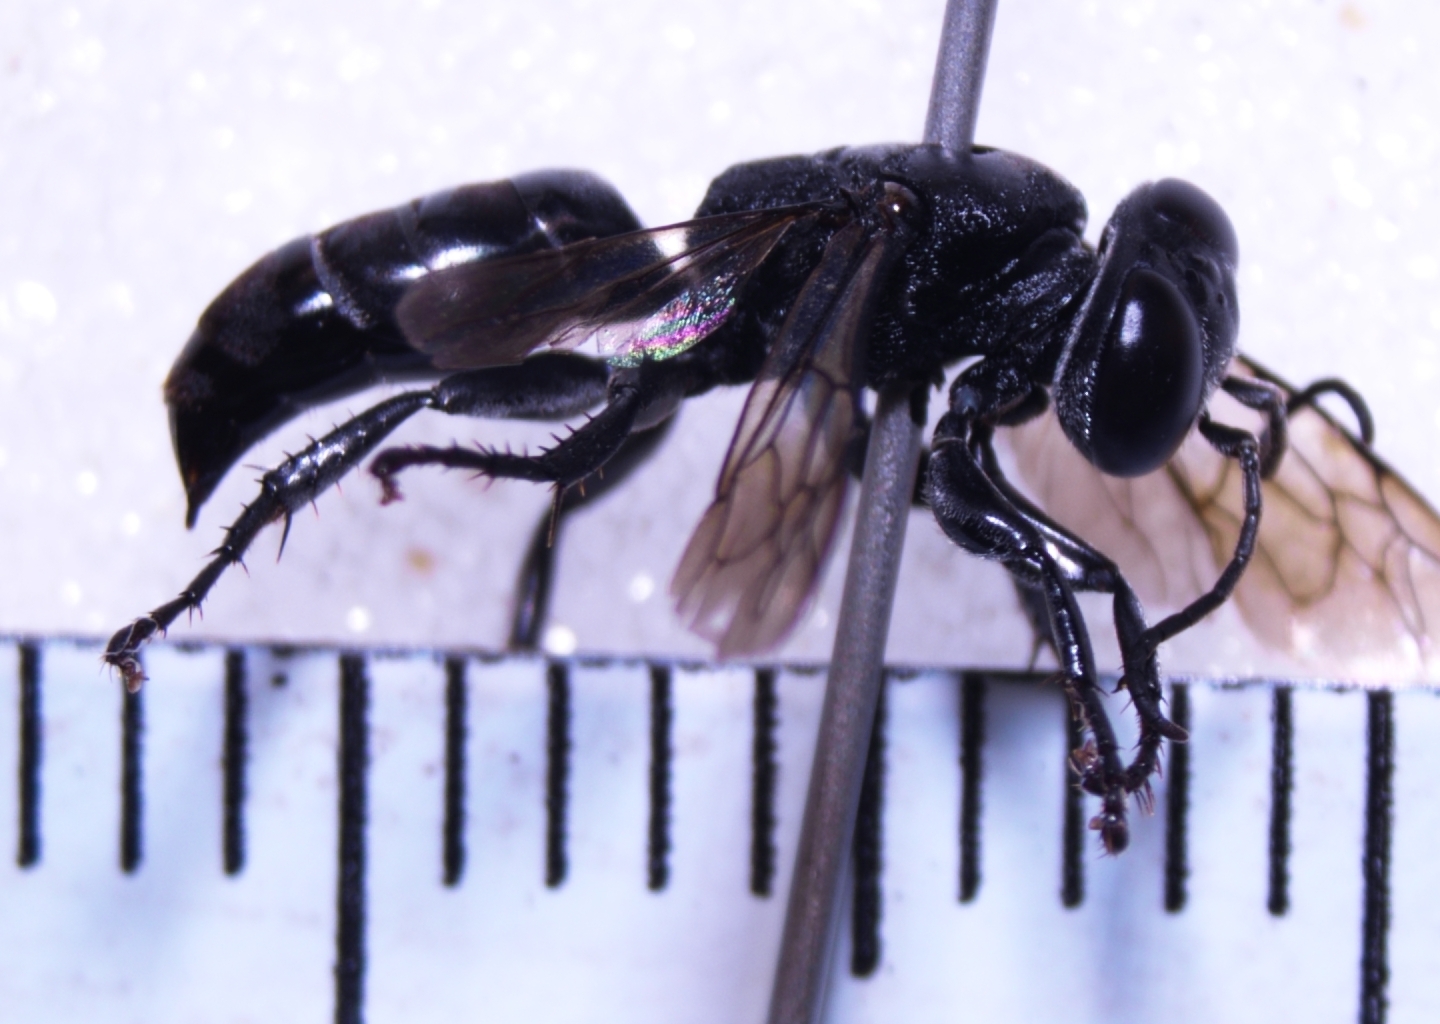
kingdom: Animalia
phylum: Arthropoda
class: Insecta
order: Hymenoptera
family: Crabronidae
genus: Tachysphex
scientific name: Tachysphex fanuiensis
